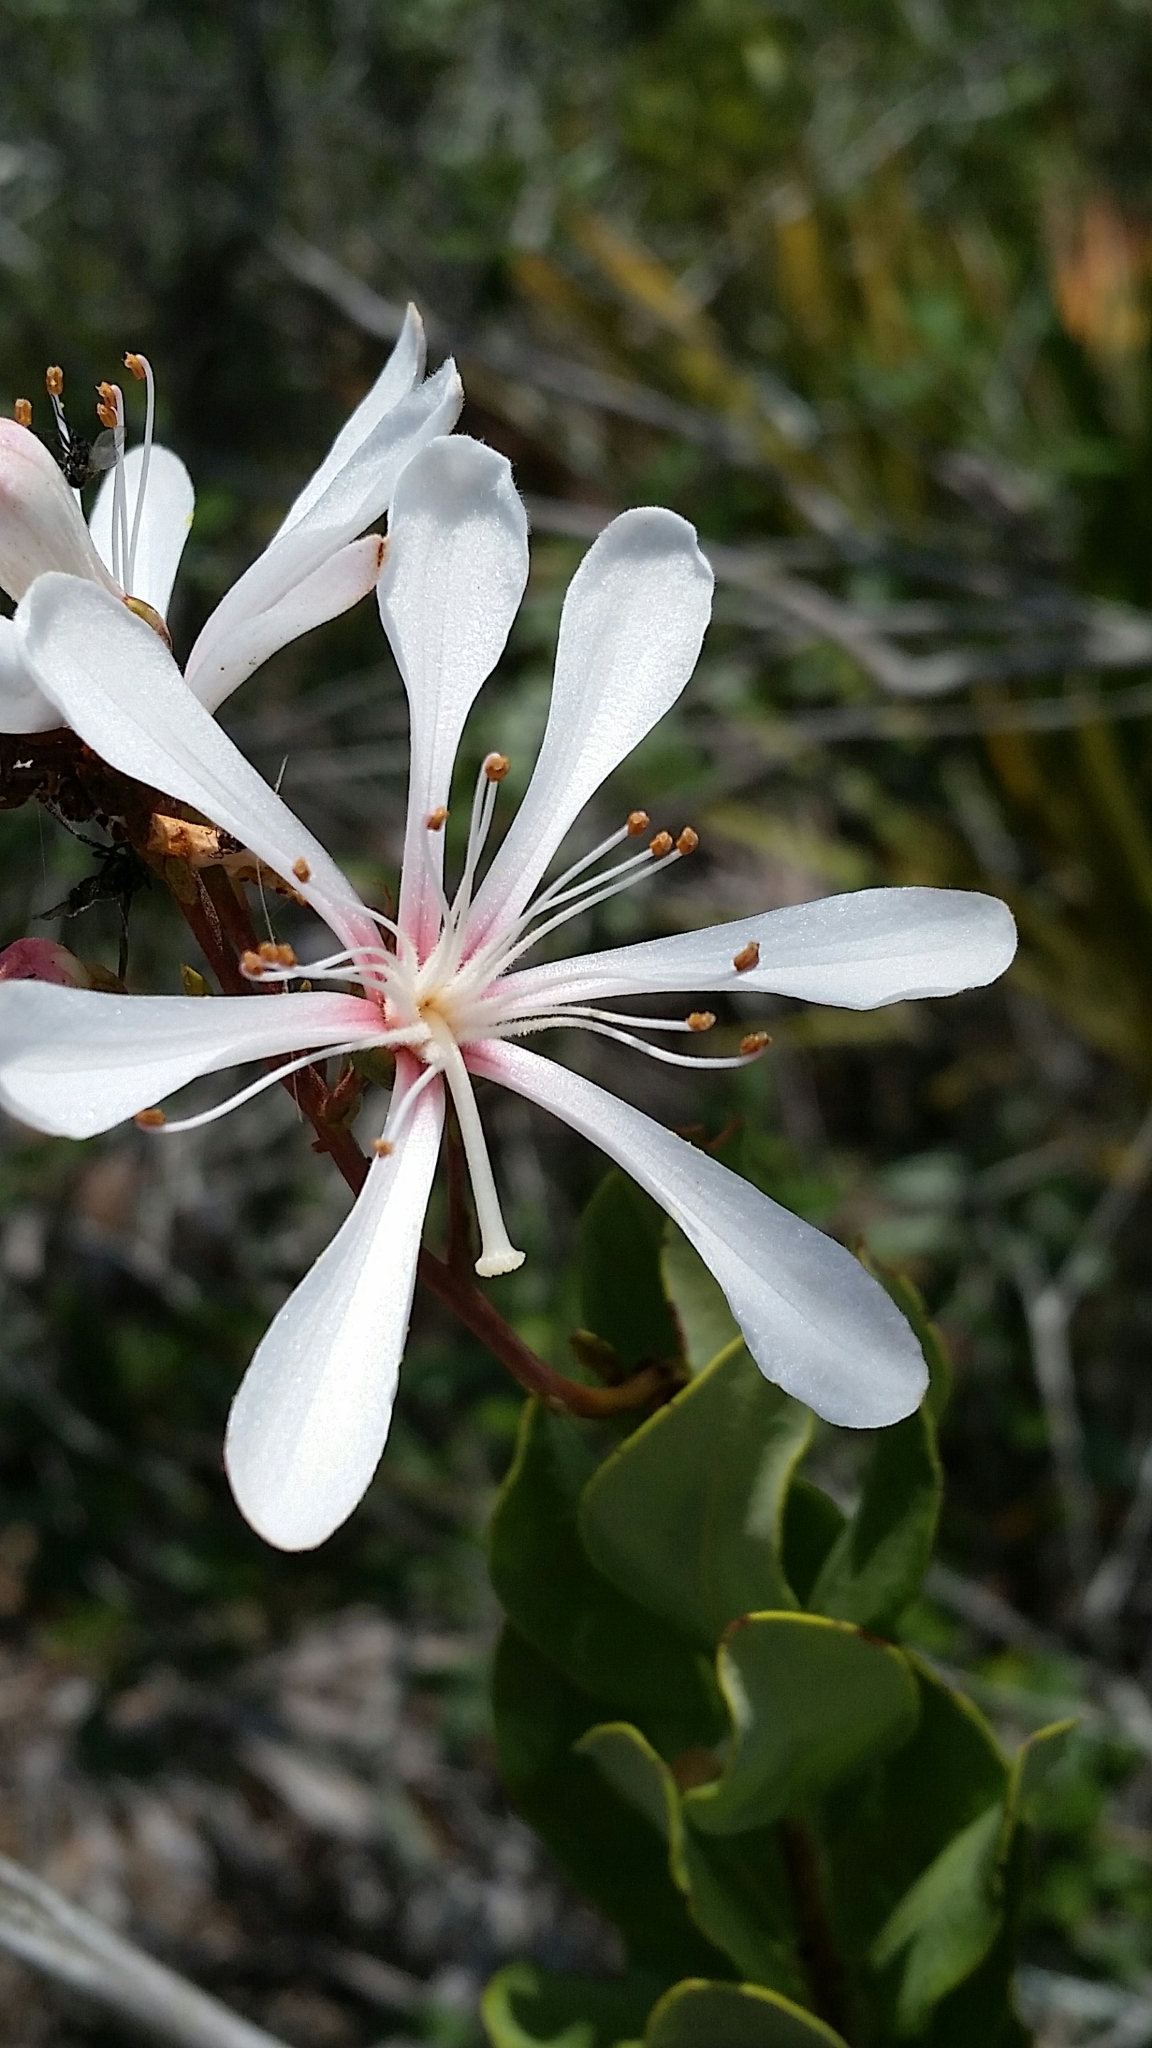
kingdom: Plantae
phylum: Tracheophyta
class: Magnoliopsida
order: Ericales
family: Ericaceae
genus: Bejaria
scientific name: Bejaria racemosa
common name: Tarflower
